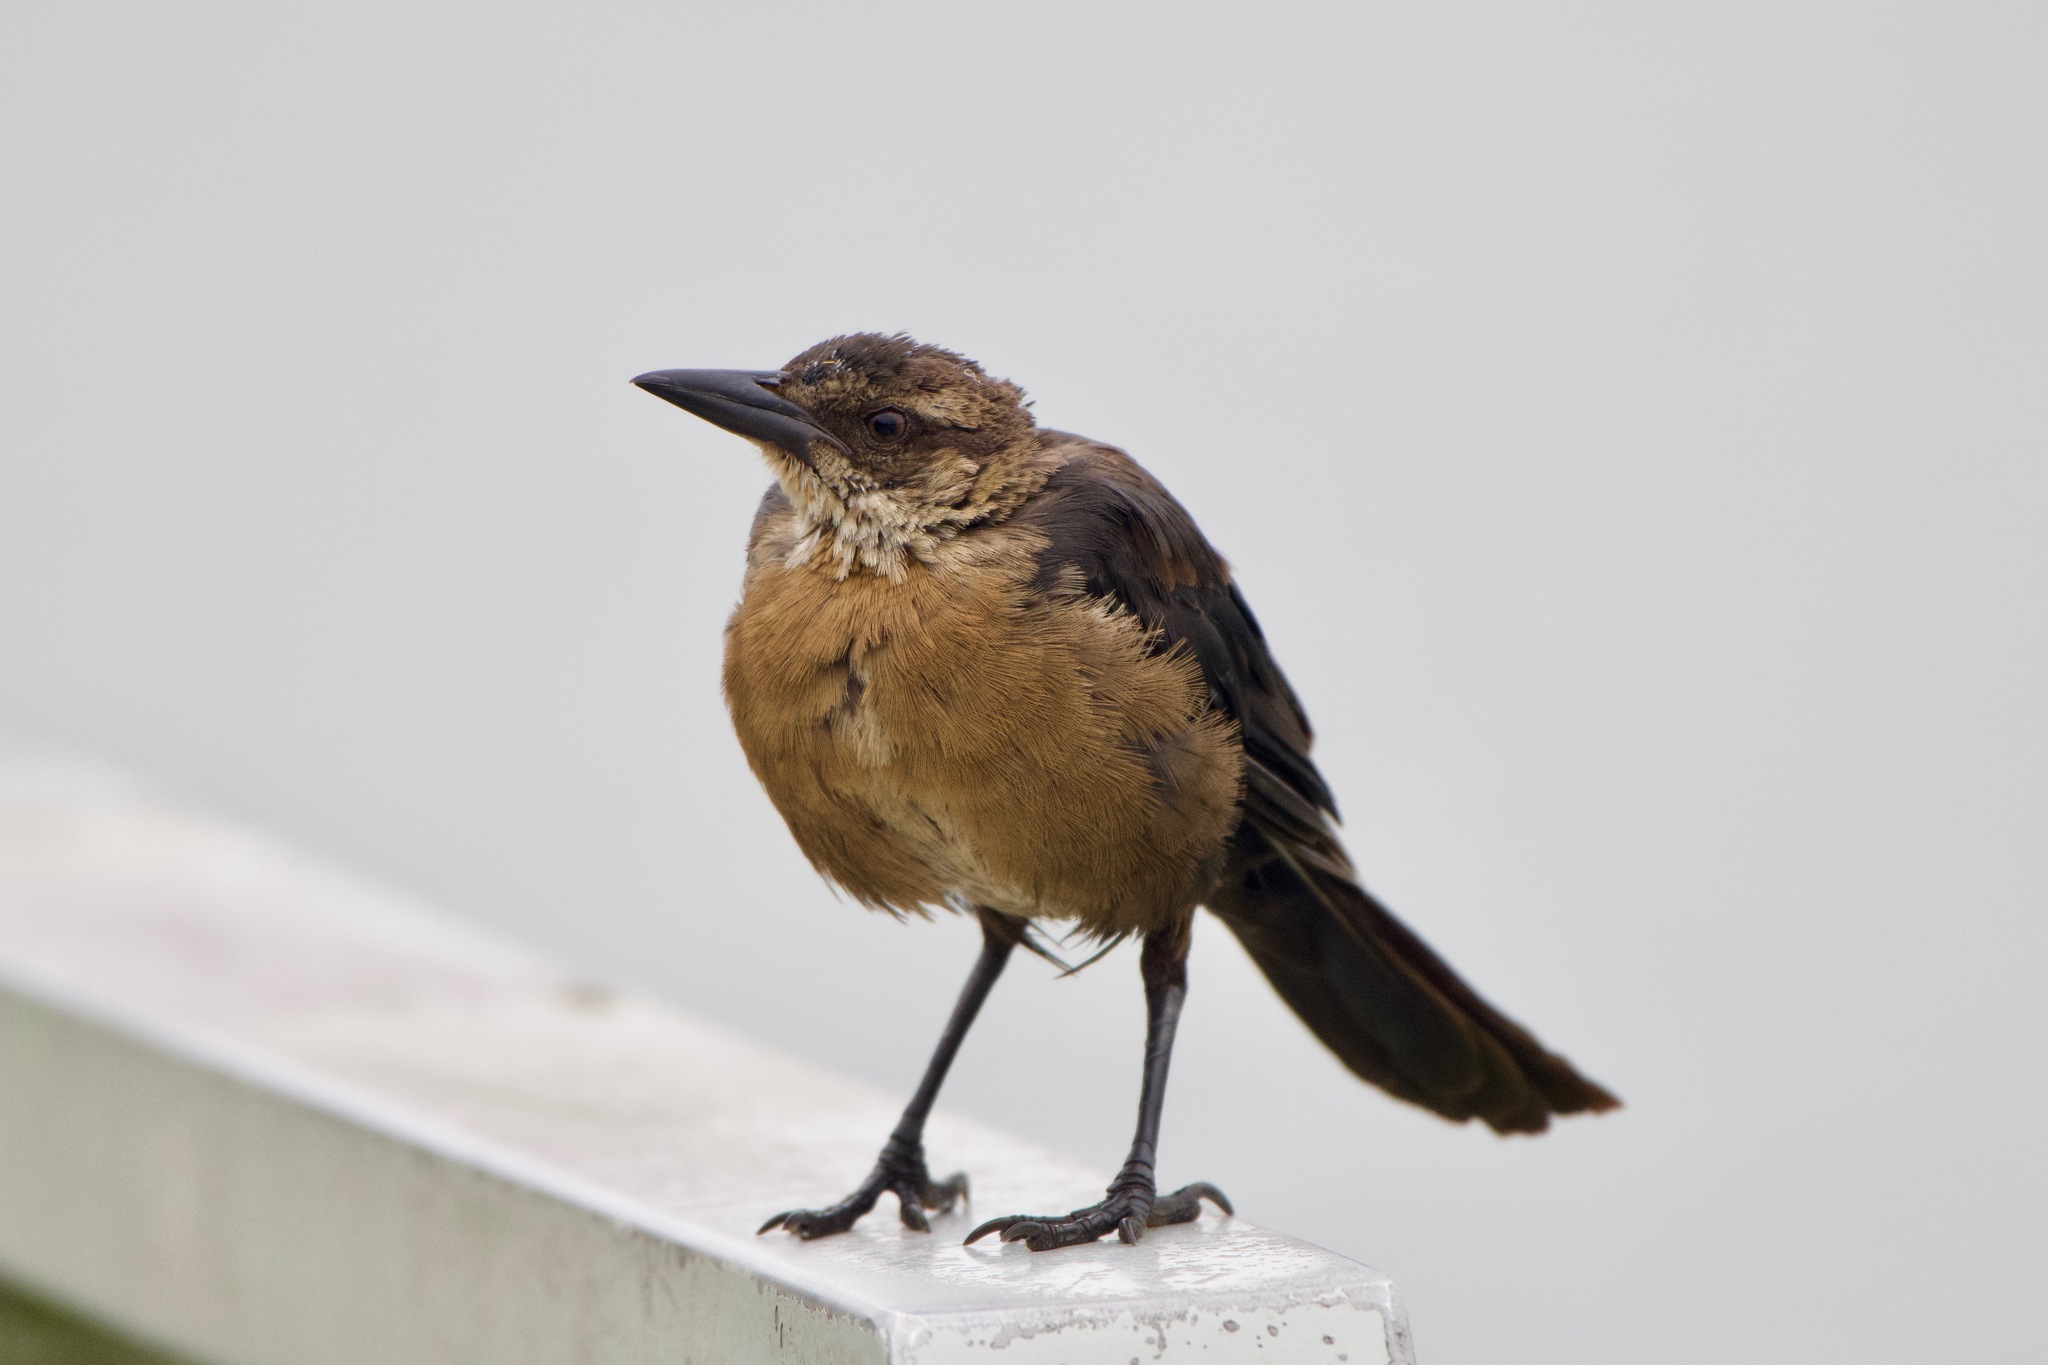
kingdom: Animalia
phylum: Chordata
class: Aves
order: Passeriformes
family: Icteridae
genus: Quiscalus
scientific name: Quiscalus mexicanus
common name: Great-tailed grackle
